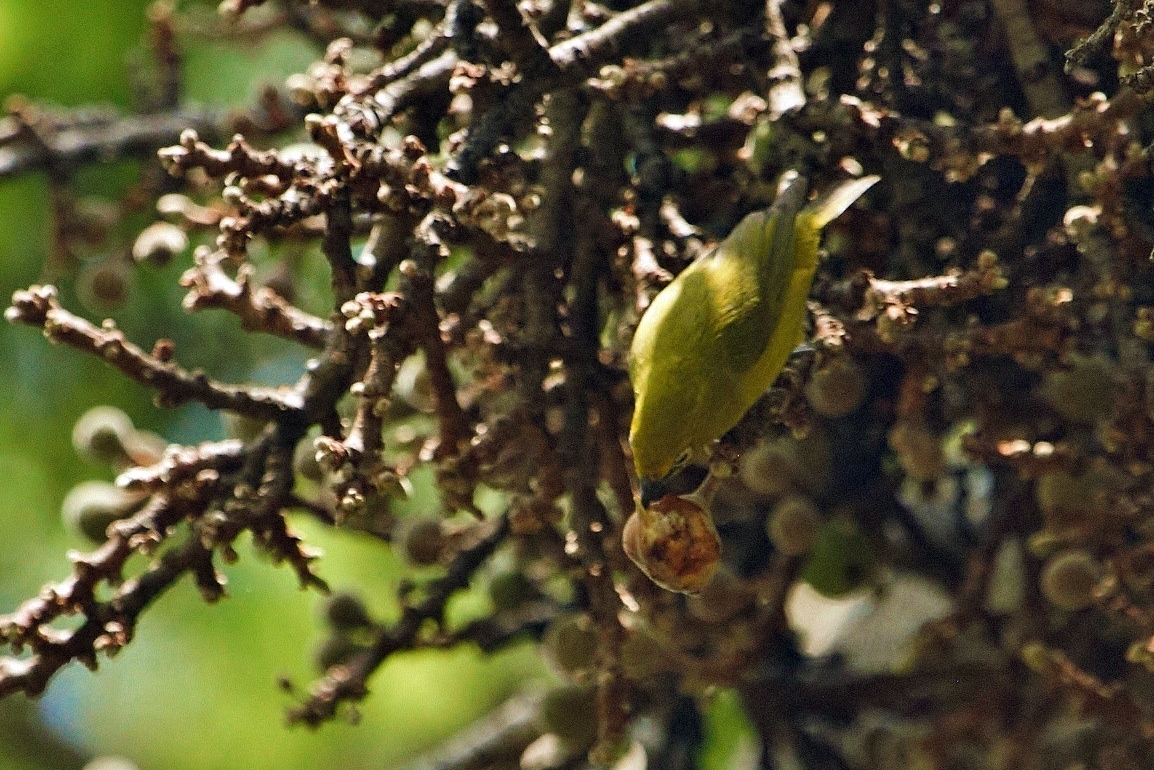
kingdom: Animalia
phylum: Chordata
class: Aves
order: Passeriformes
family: Zosteropidae
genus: Zosterops
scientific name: Zosterops anderssoni
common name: Southern yellow white-eye
